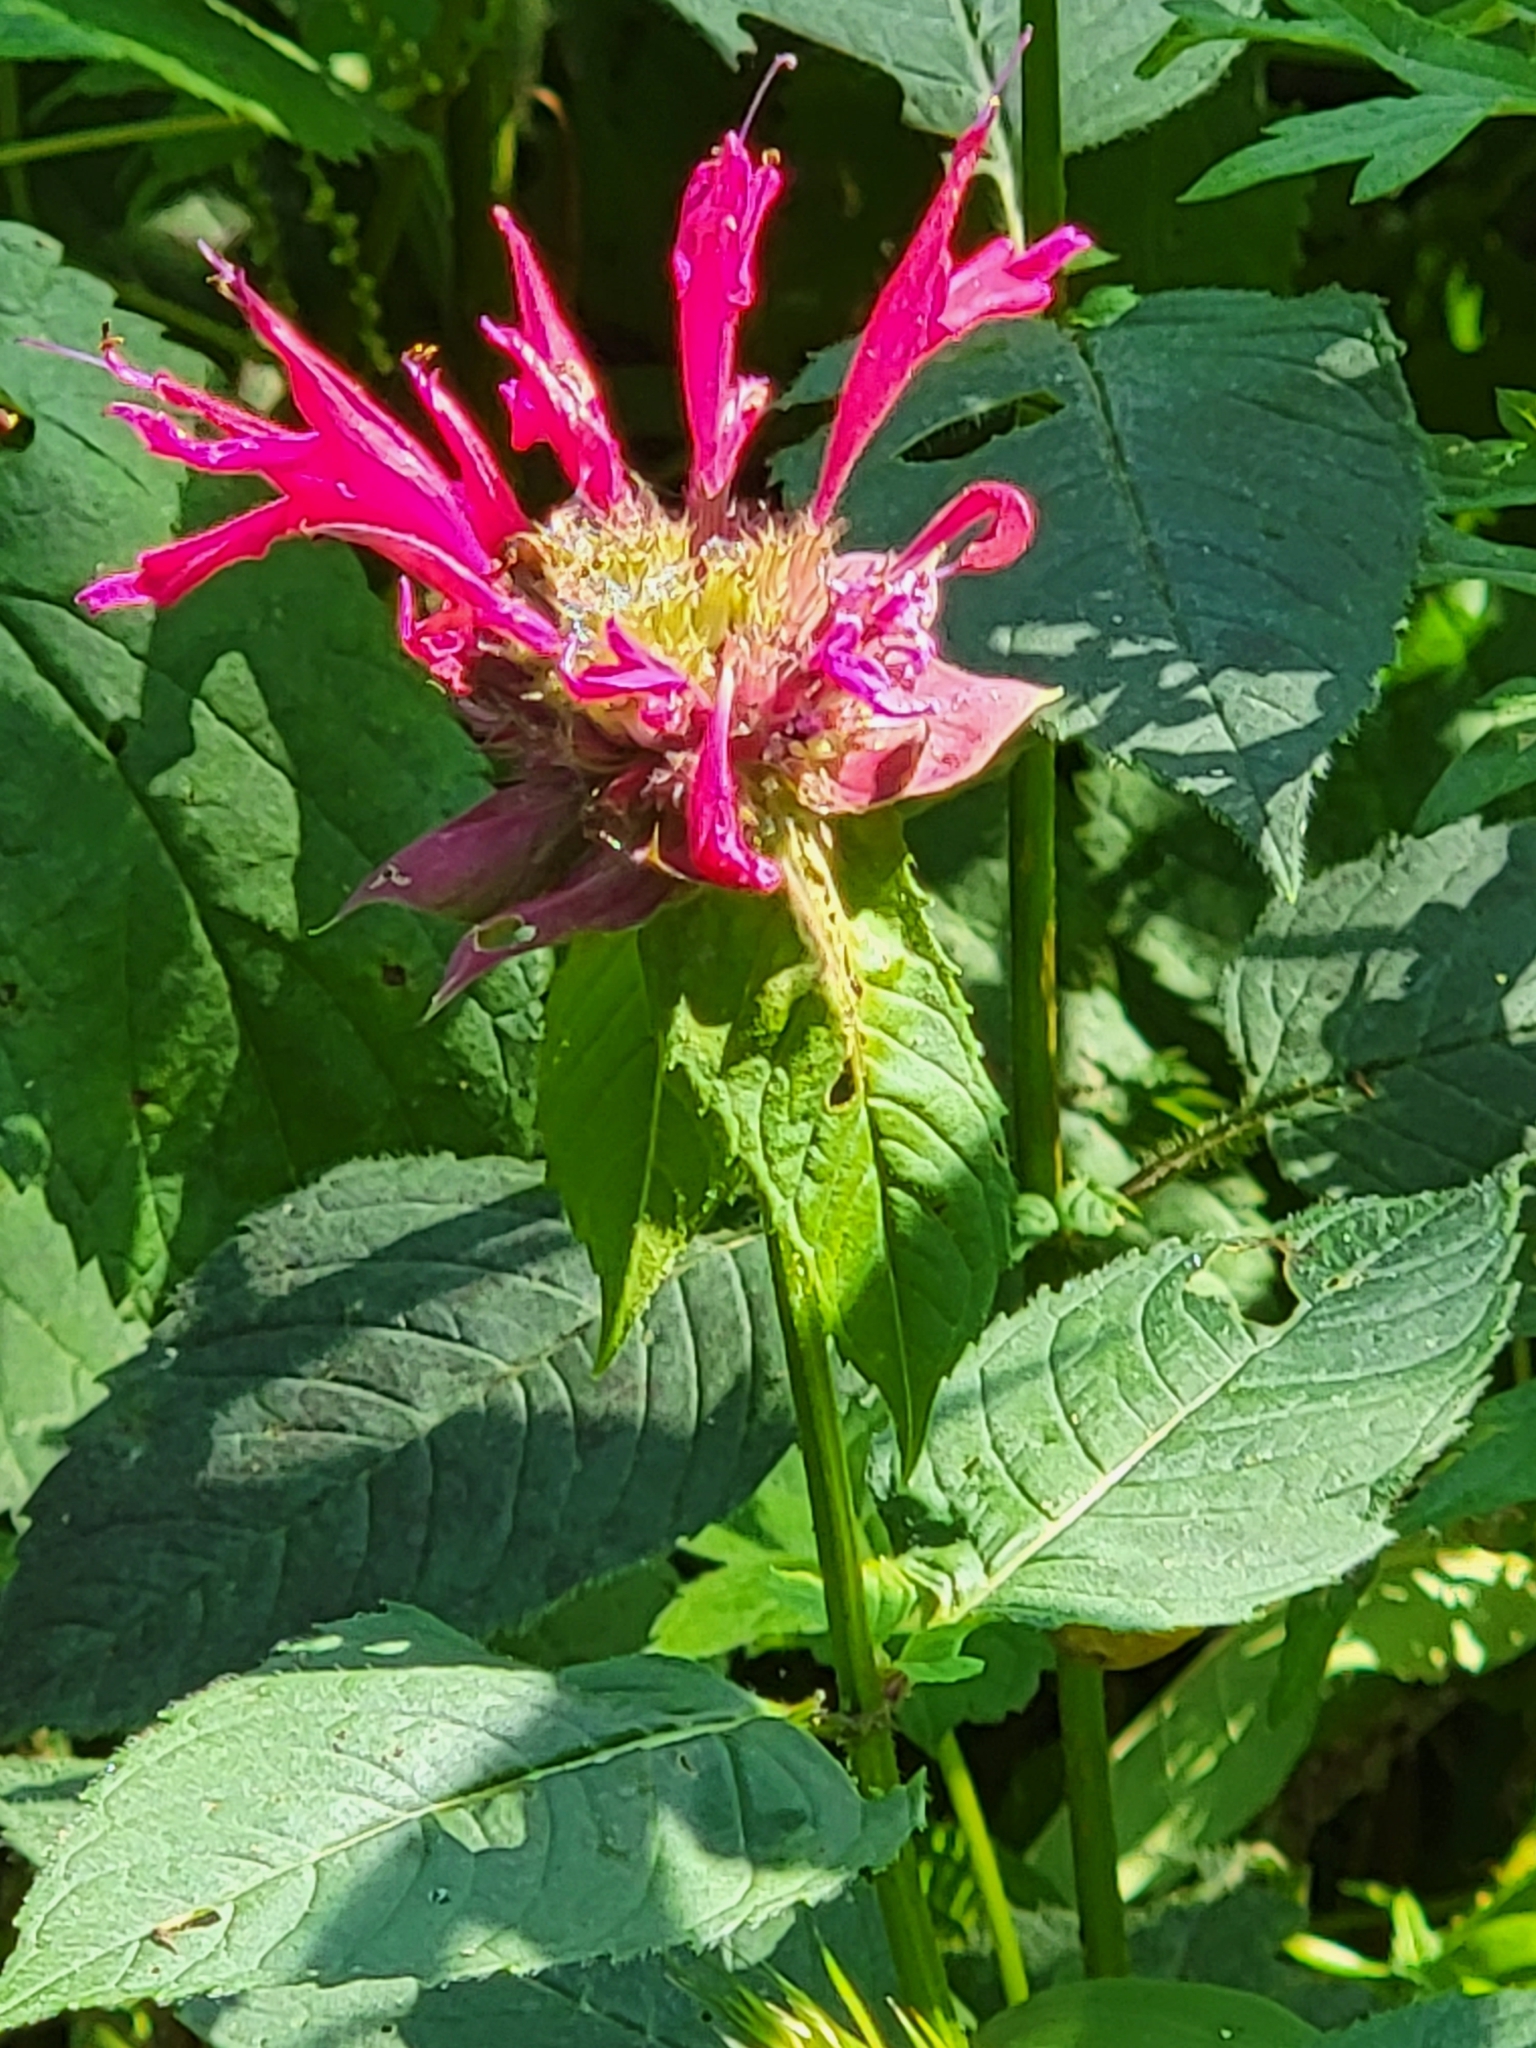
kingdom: Plantae
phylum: Tracheophyta
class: Magnoliopsida
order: Lamiales
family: Lamiaceae
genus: Monarda
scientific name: Monarda didyma
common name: Beebalm
